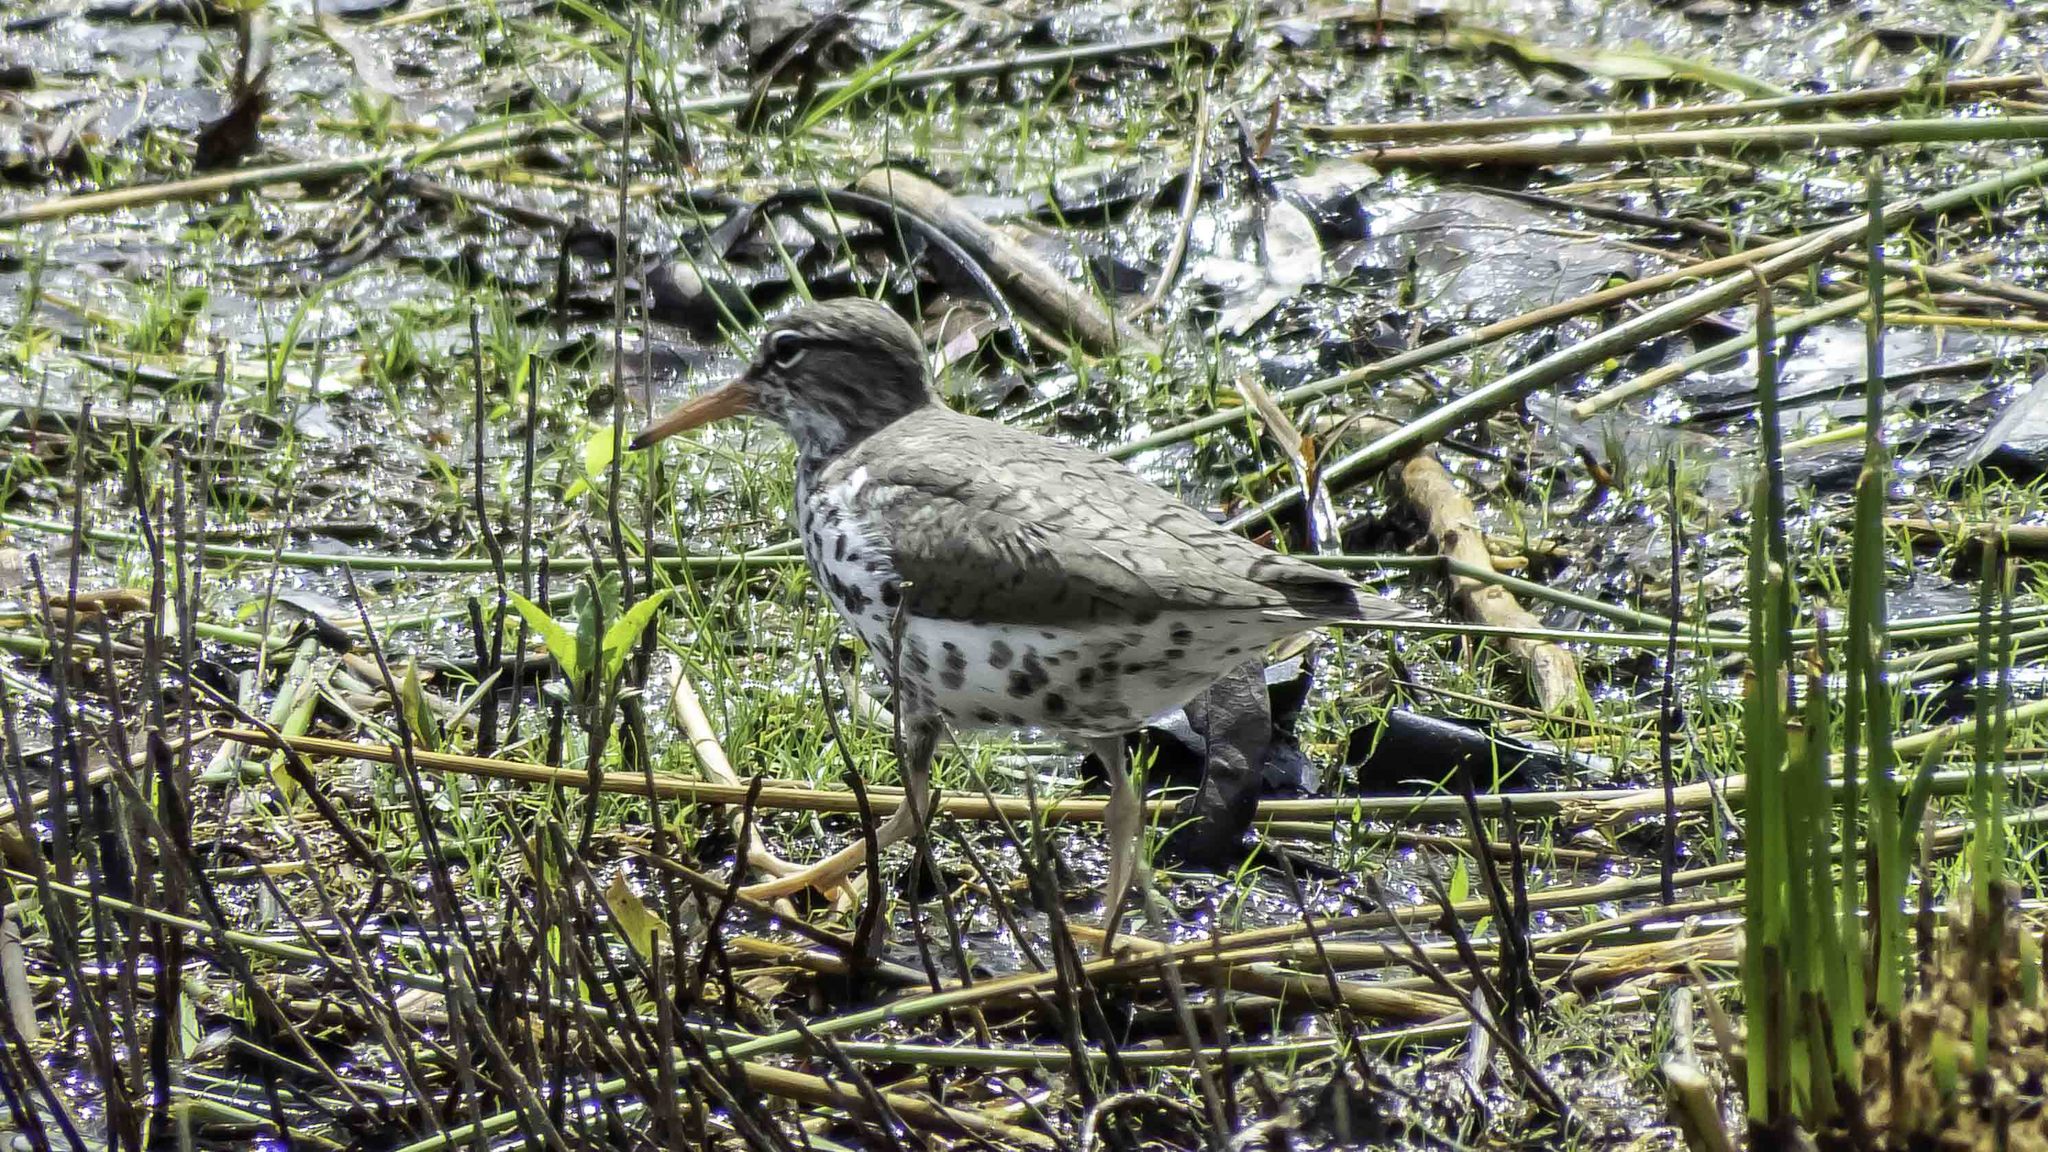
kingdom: Animalia
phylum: Chordata
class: Aves
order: Charadriiformes
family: Scolopacidae
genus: Actitis
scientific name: Actitis macularius
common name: Spotted sandpiper
